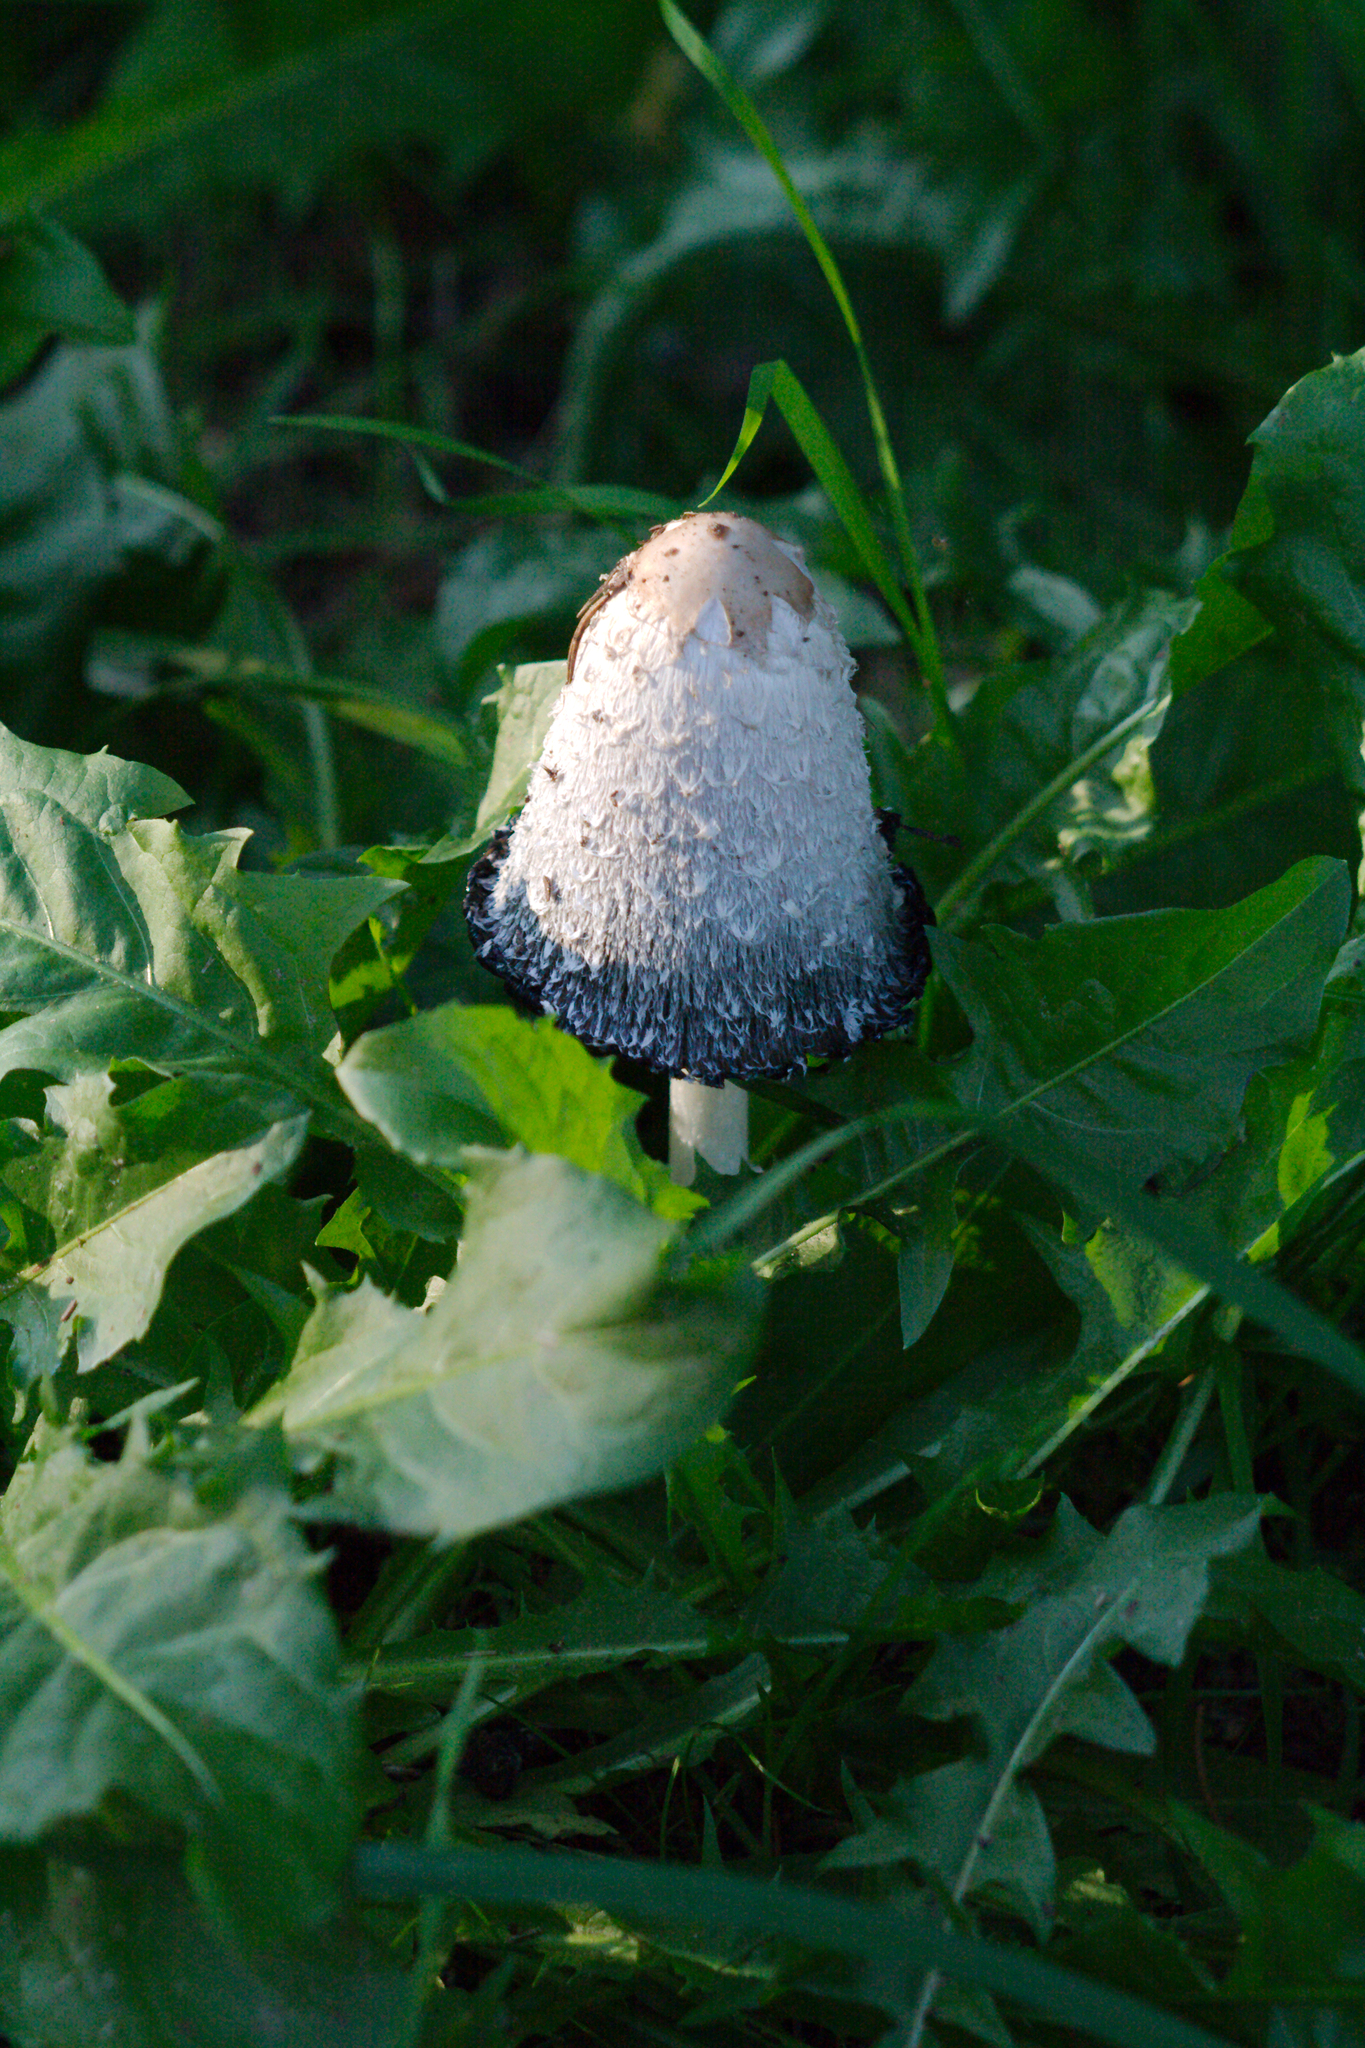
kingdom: Fungi
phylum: Basidiomycota
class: Agaricomycetes
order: Agaricales
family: Agaricaceae
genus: Coprinus
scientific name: Coprinus comatus
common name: Lawyer's wig
